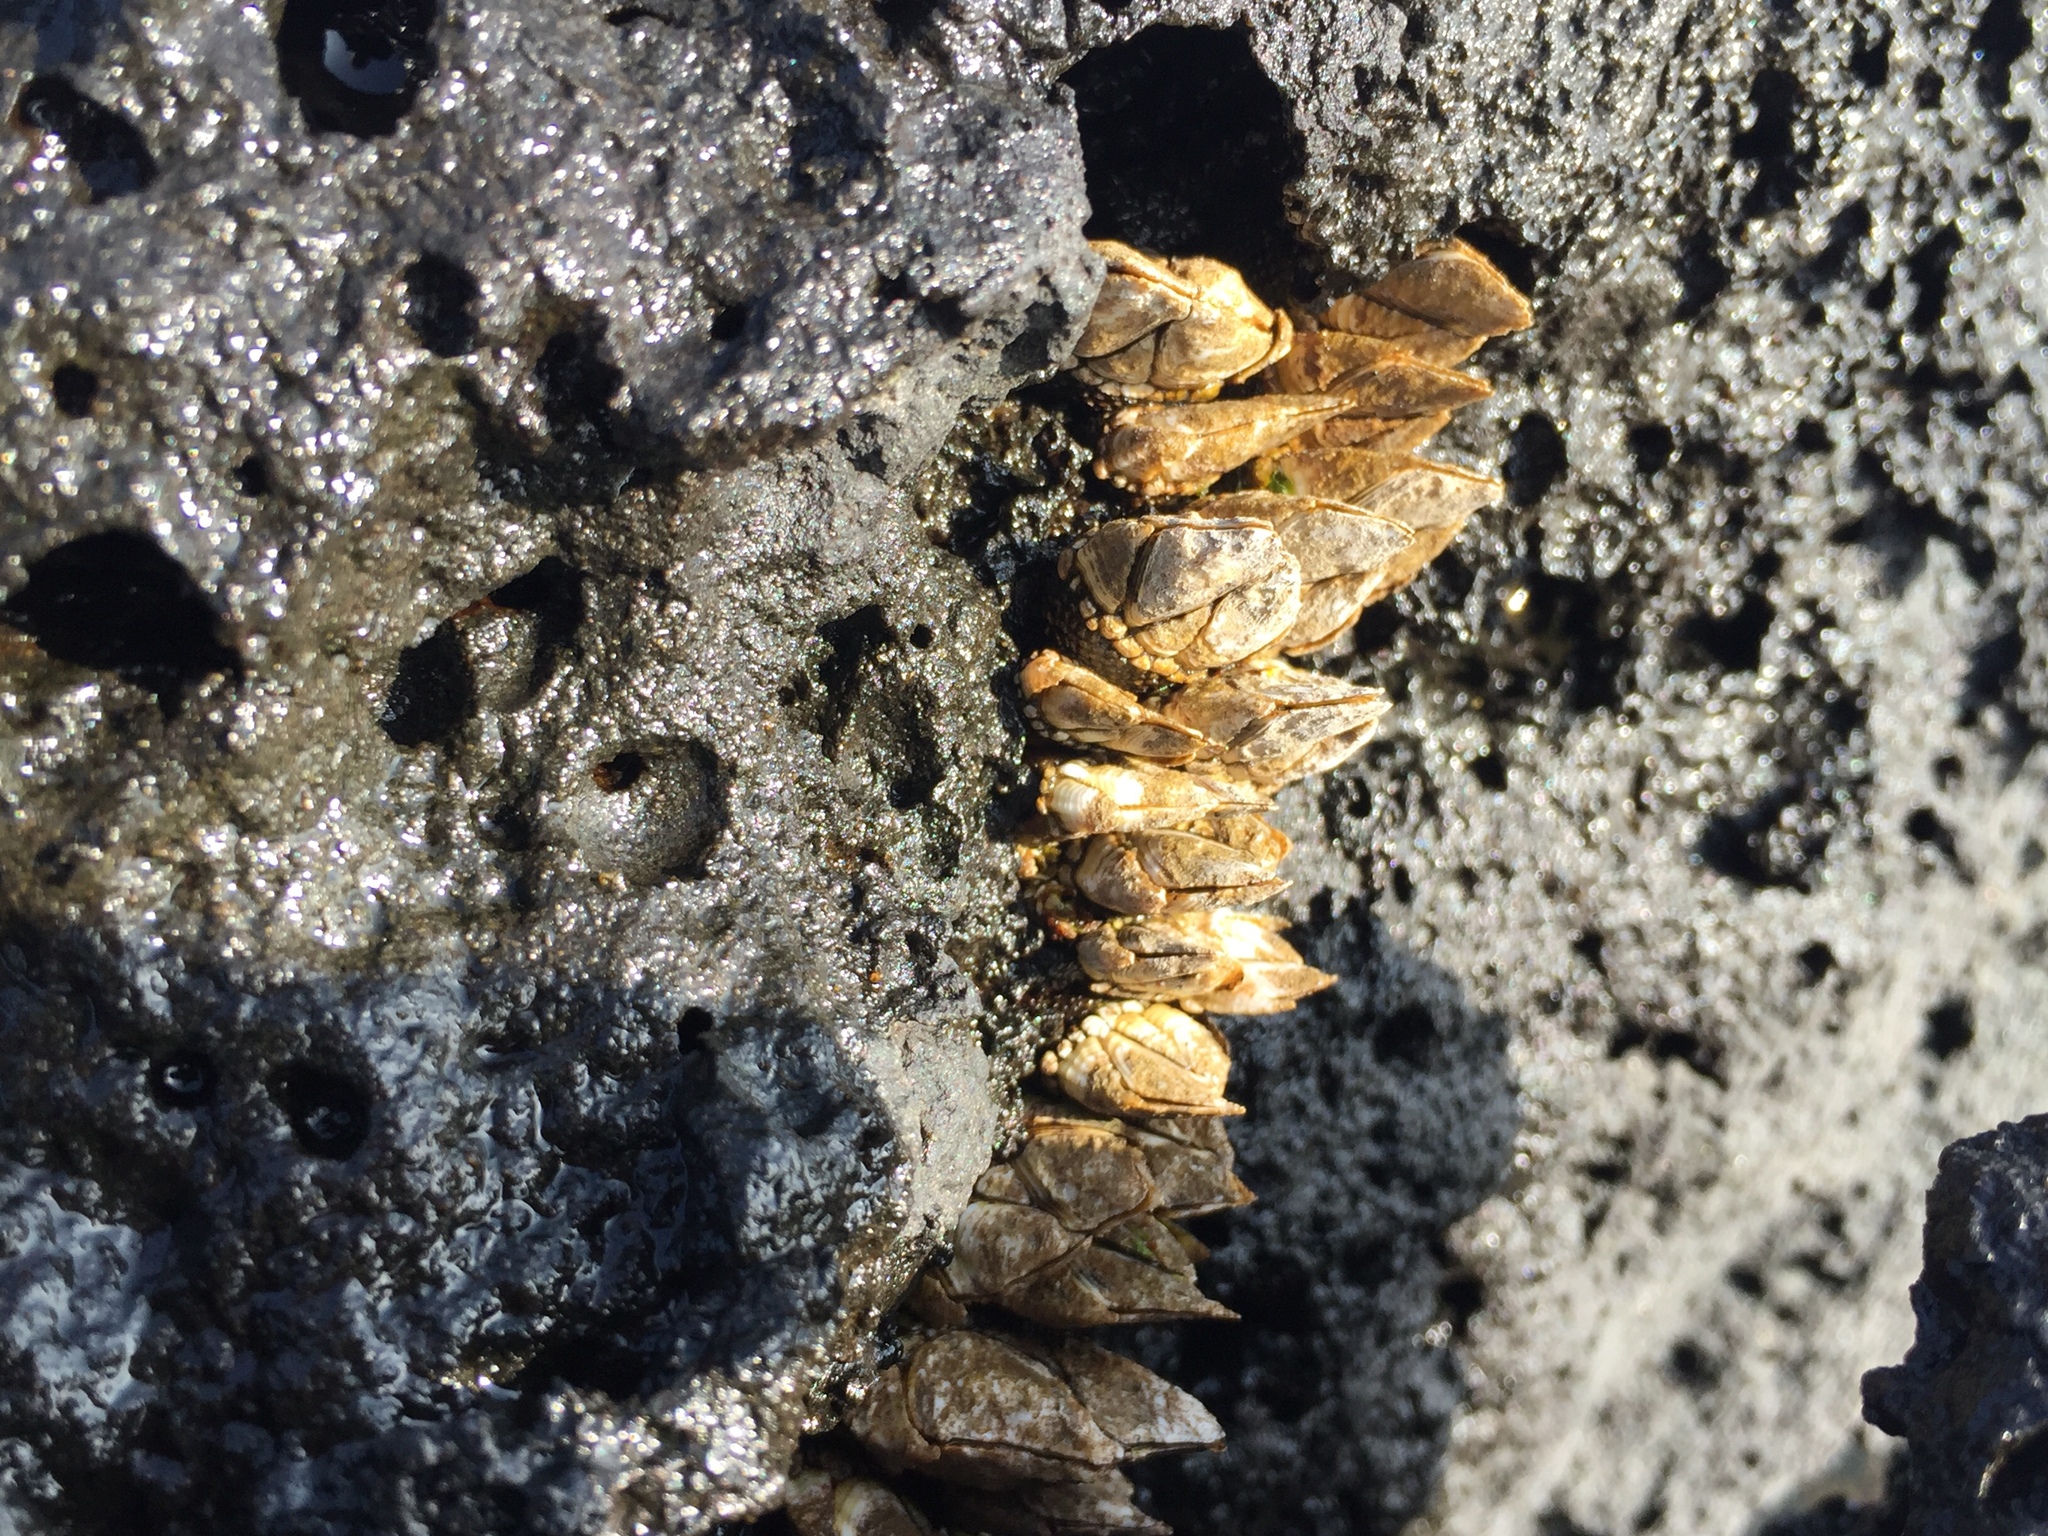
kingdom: Animalia
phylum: Arthropoda
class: Maxillopoda
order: Pedunculata
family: Pollicipedidae
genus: Capitulum
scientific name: Capitulum mitella
